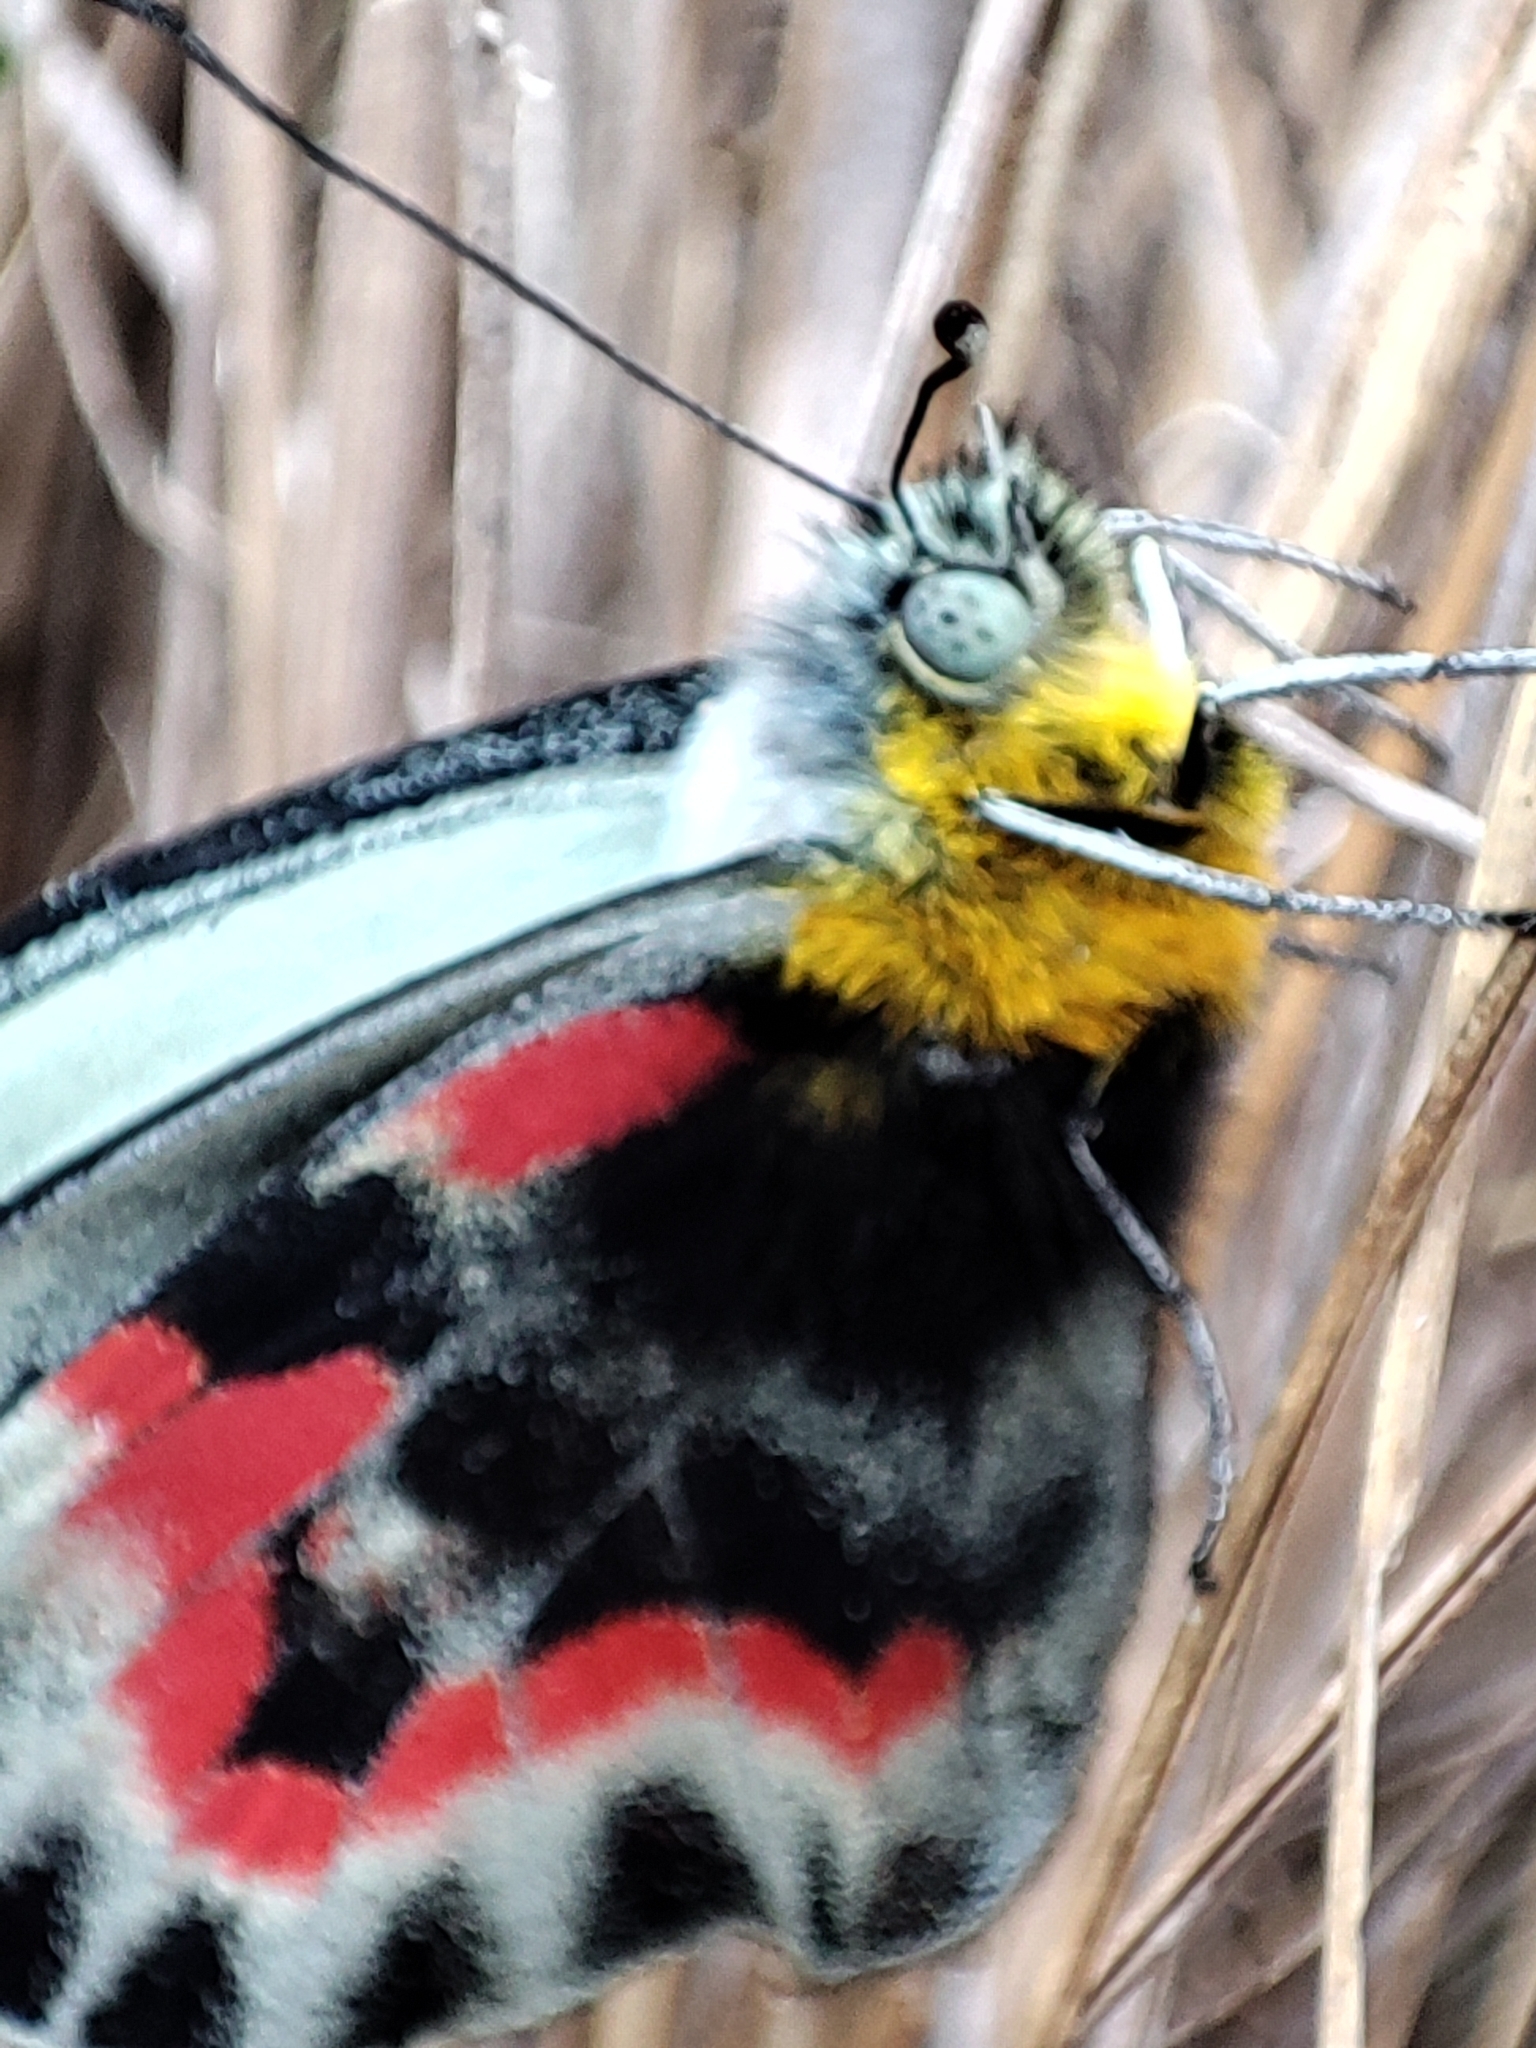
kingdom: Animalia
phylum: Arthropoda
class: Insecta
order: Lepidoptera
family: Pieridae
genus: Delias
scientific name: Delias harpalyce
